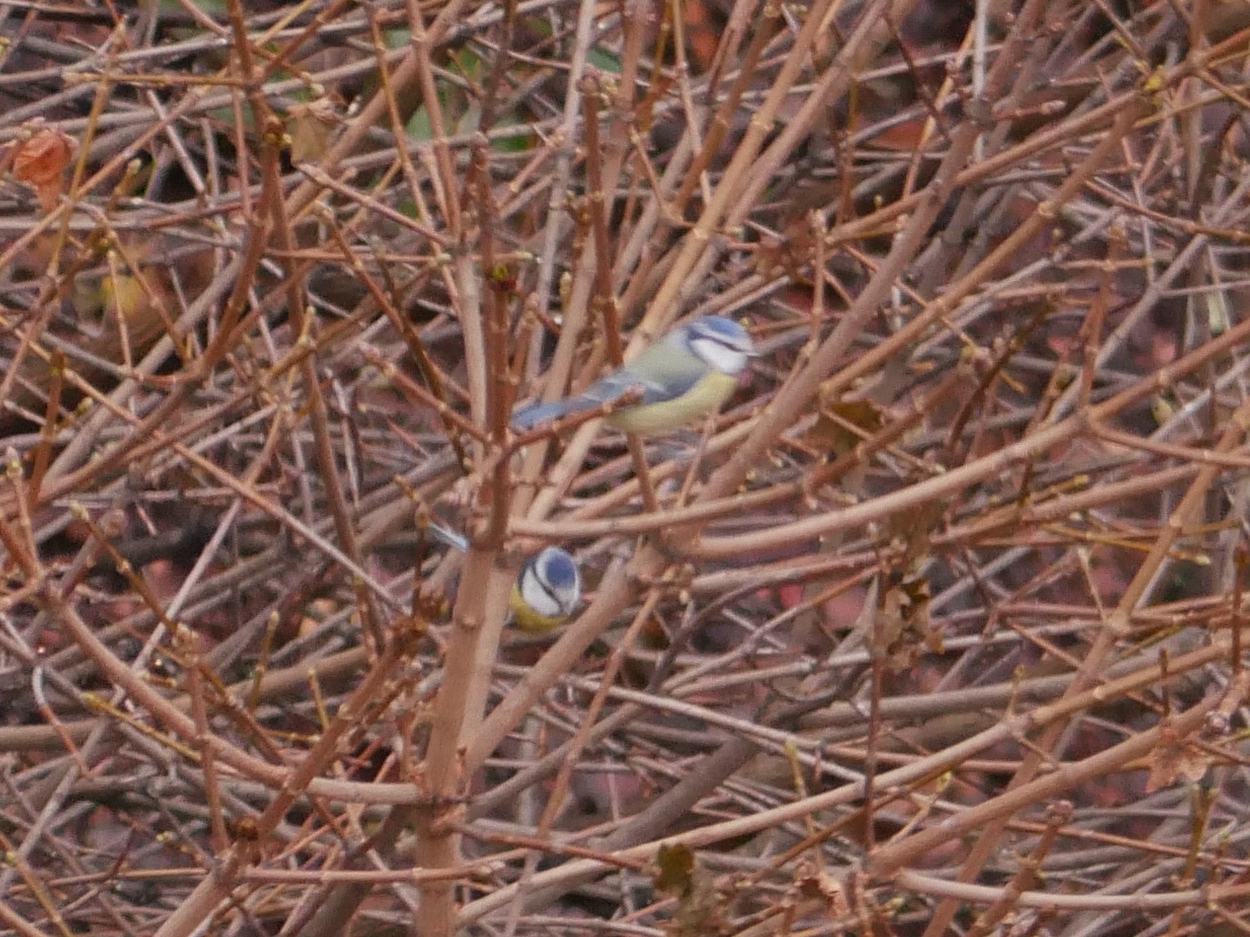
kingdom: Animalia
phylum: Chordata
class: Aves
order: Passeriformes
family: Paridae
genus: Cyanistes
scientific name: Cyanistes caeruleus
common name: Eurasian blue tit
